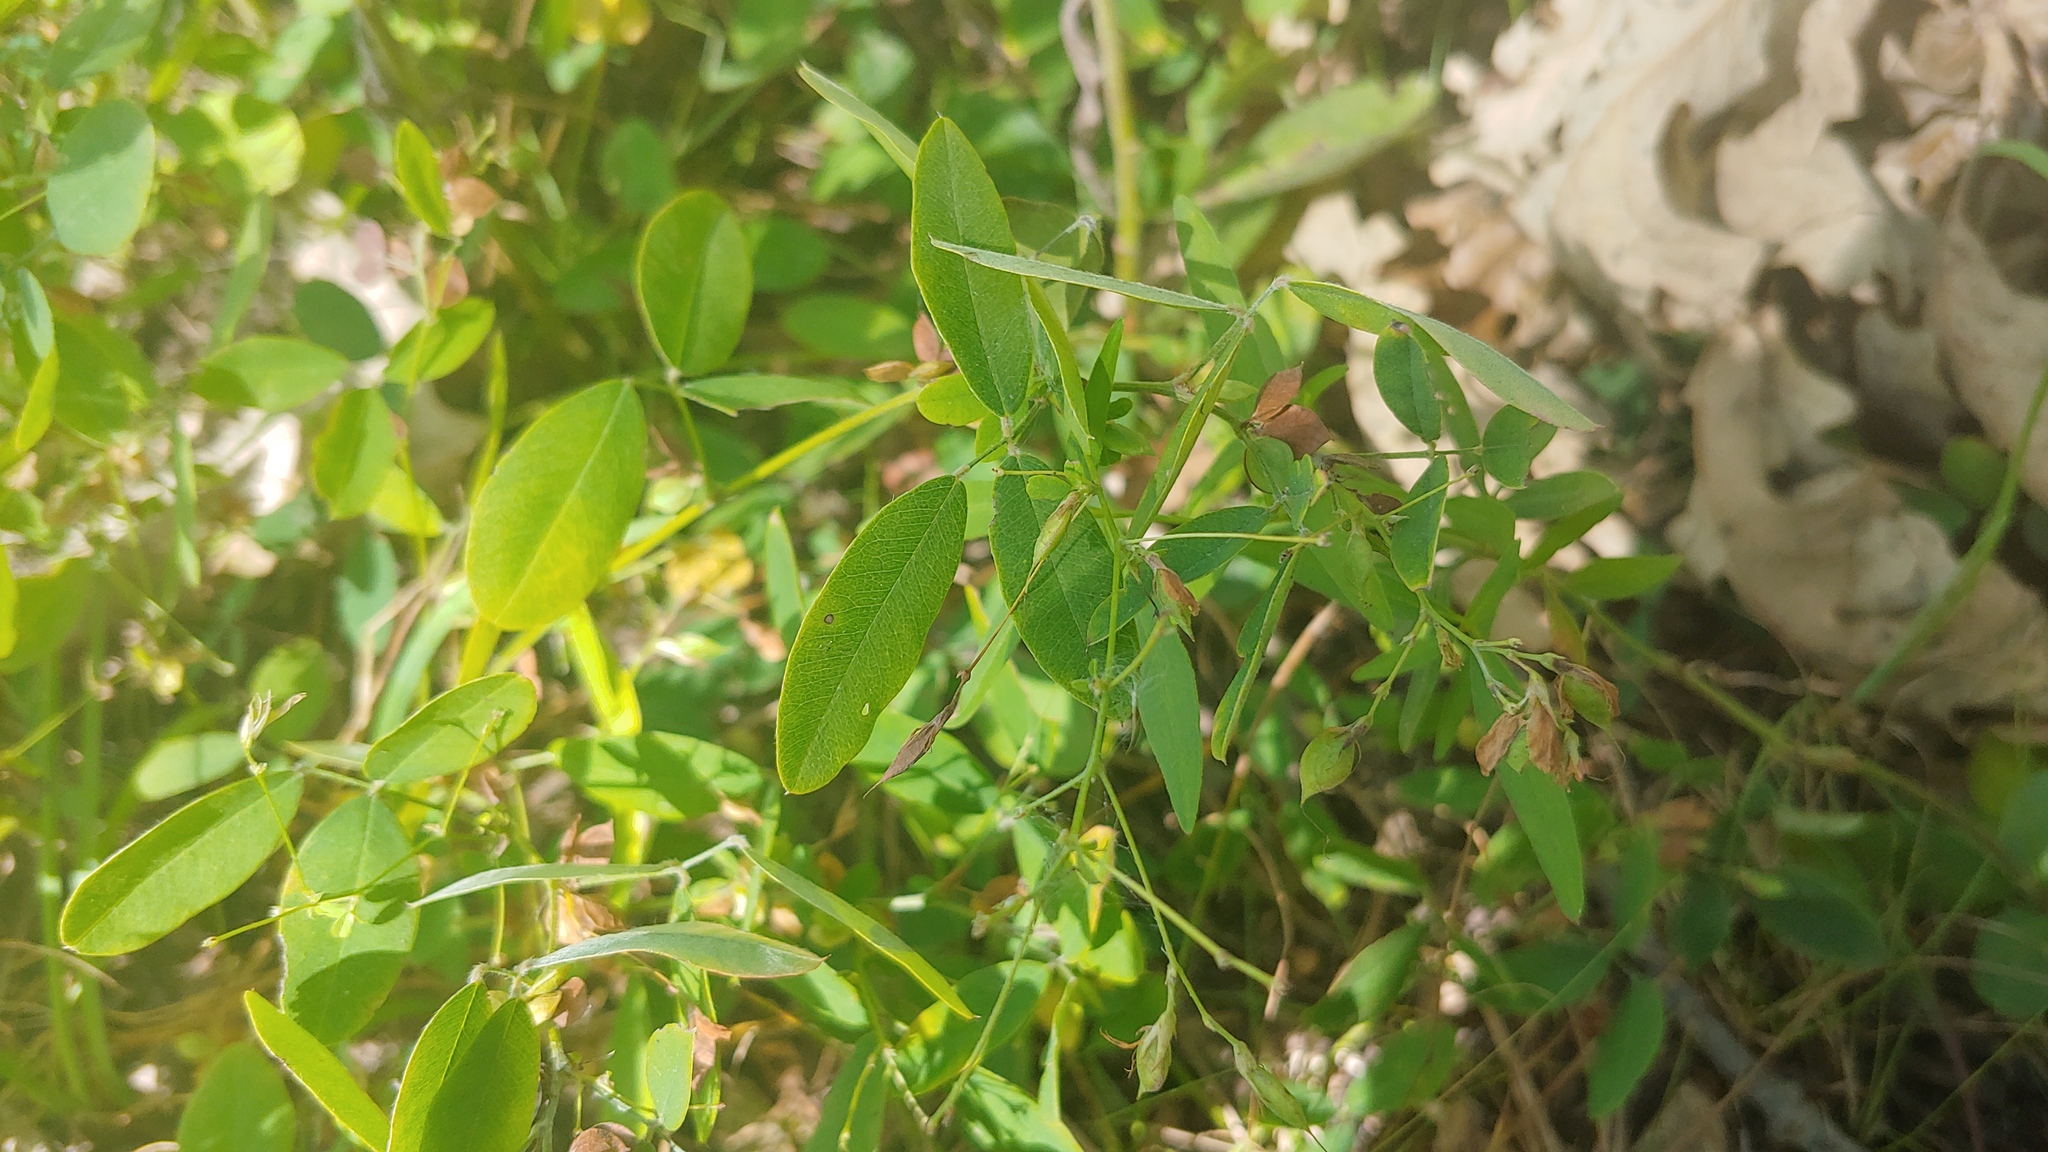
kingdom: Plantae
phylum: Tracheophyta
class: Magnoliopsida
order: Fabales
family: Fabaceae
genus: Lespedeza
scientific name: Lespedeza
